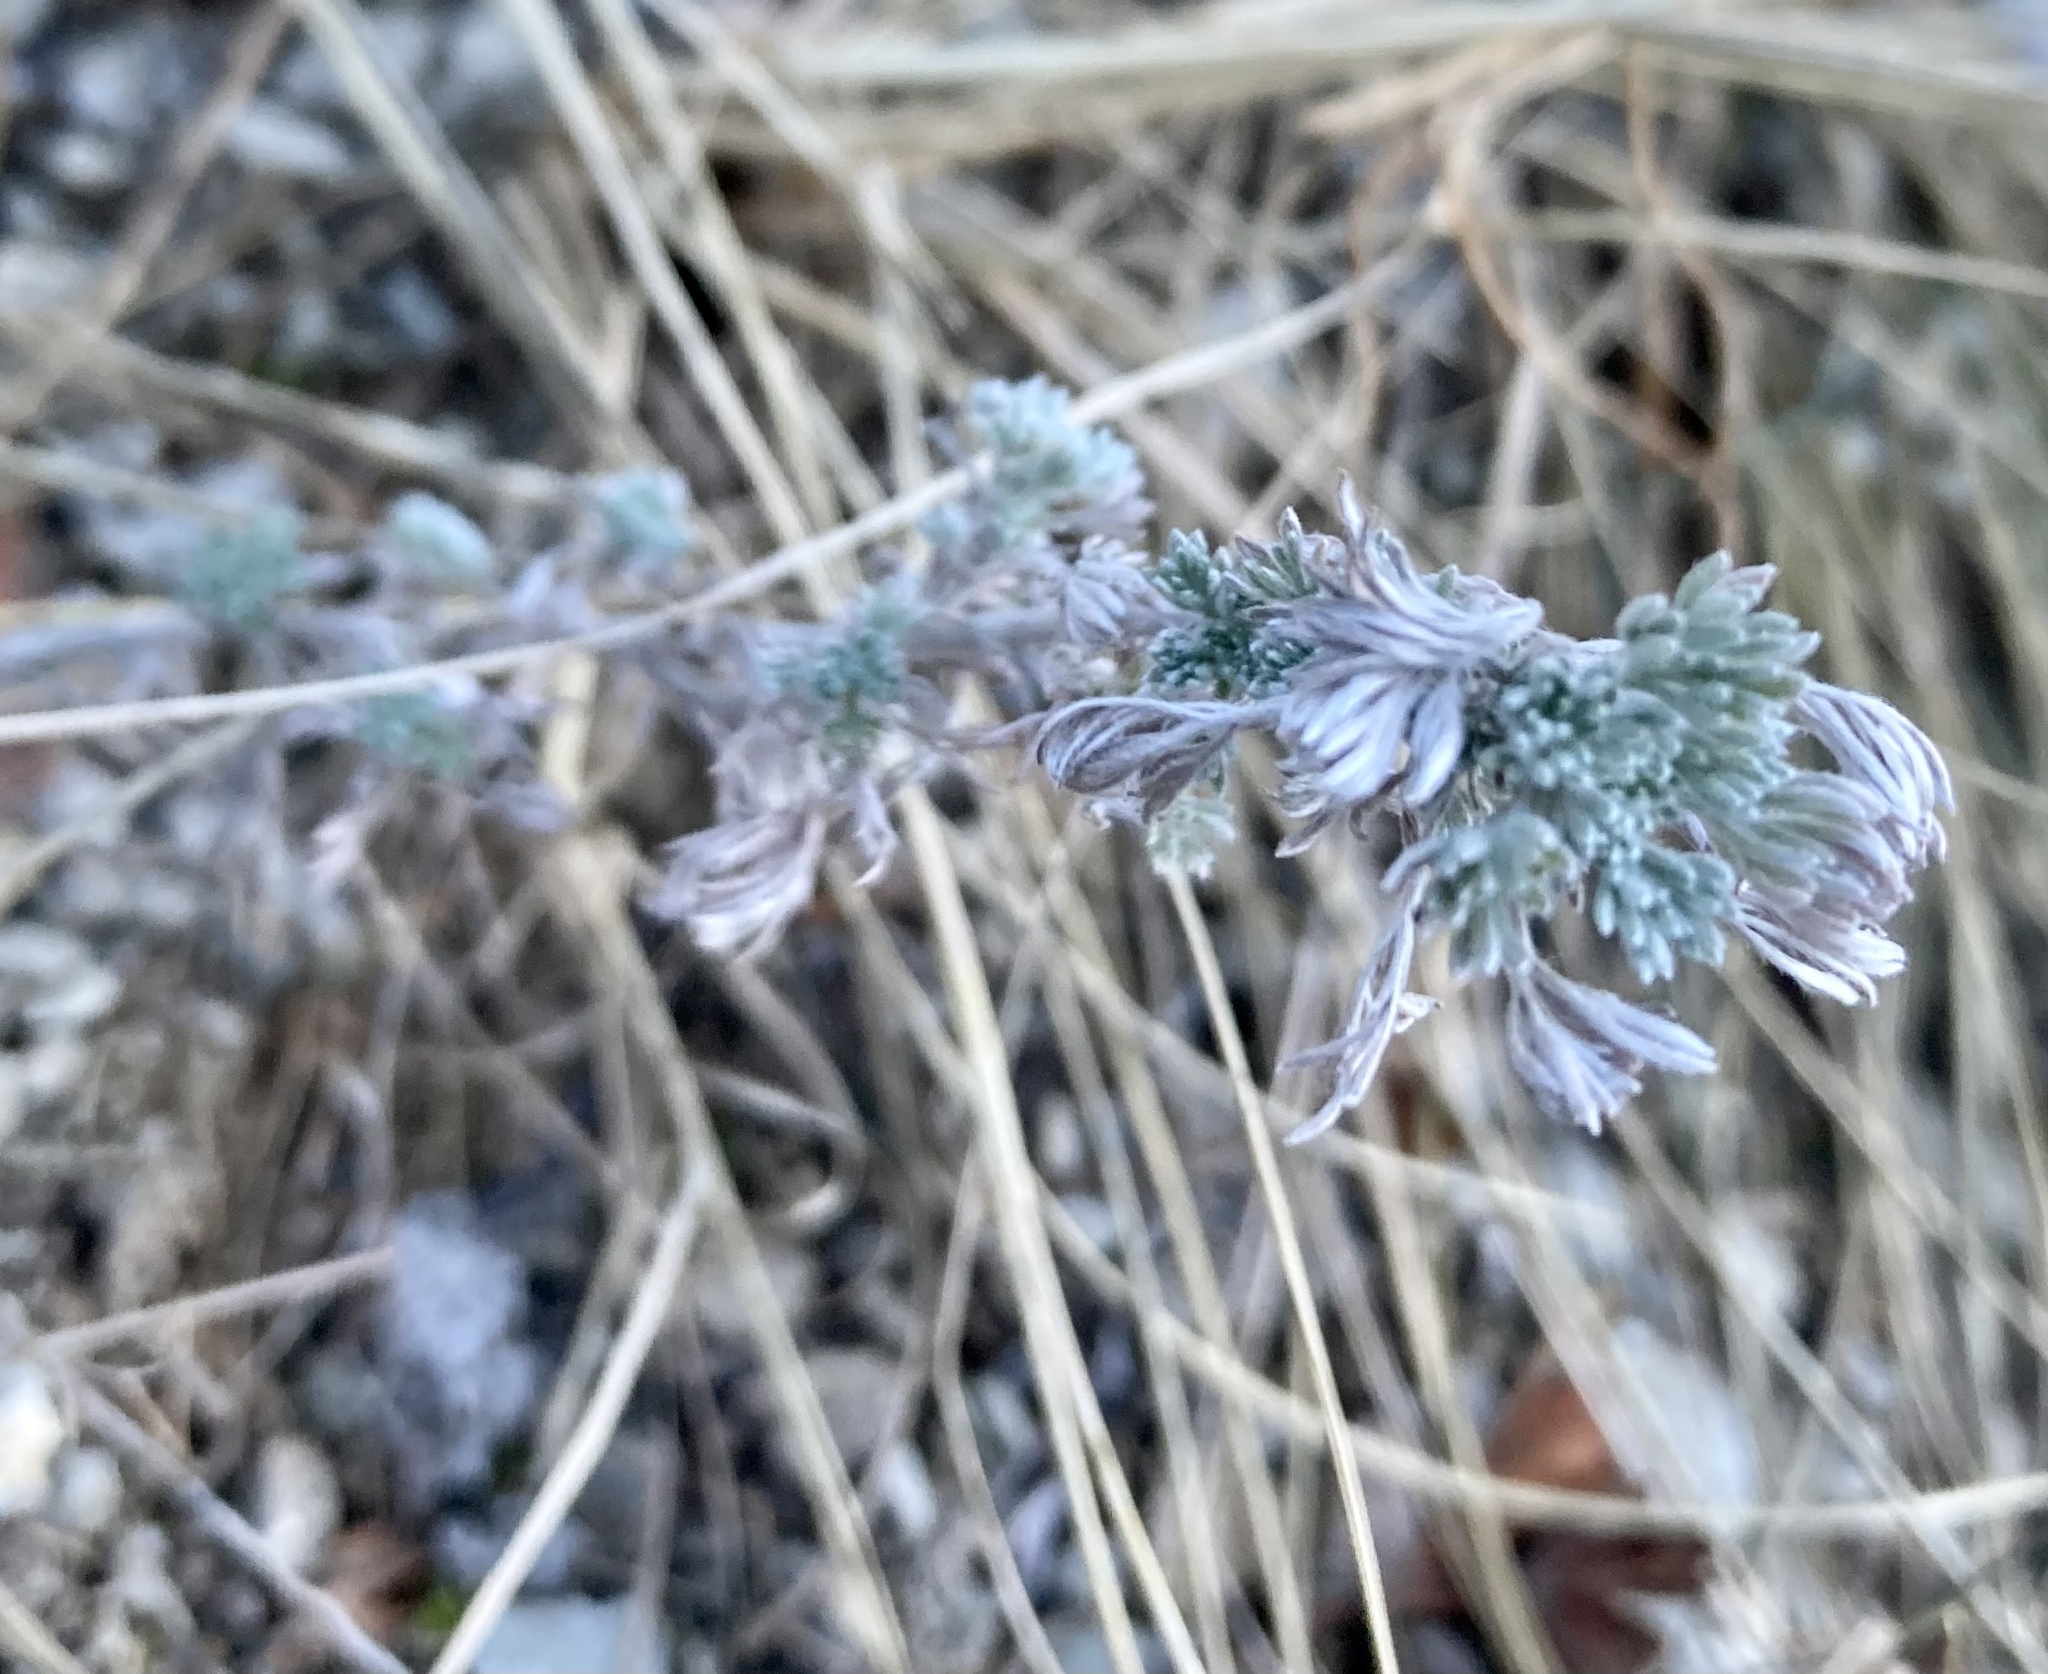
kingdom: Plantae
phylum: Tracheophyta
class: Magnoliopsida
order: Asterales
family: Asteraceae
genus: Artemisia
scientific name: Artemisia frigida
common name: Prairie sagewort
